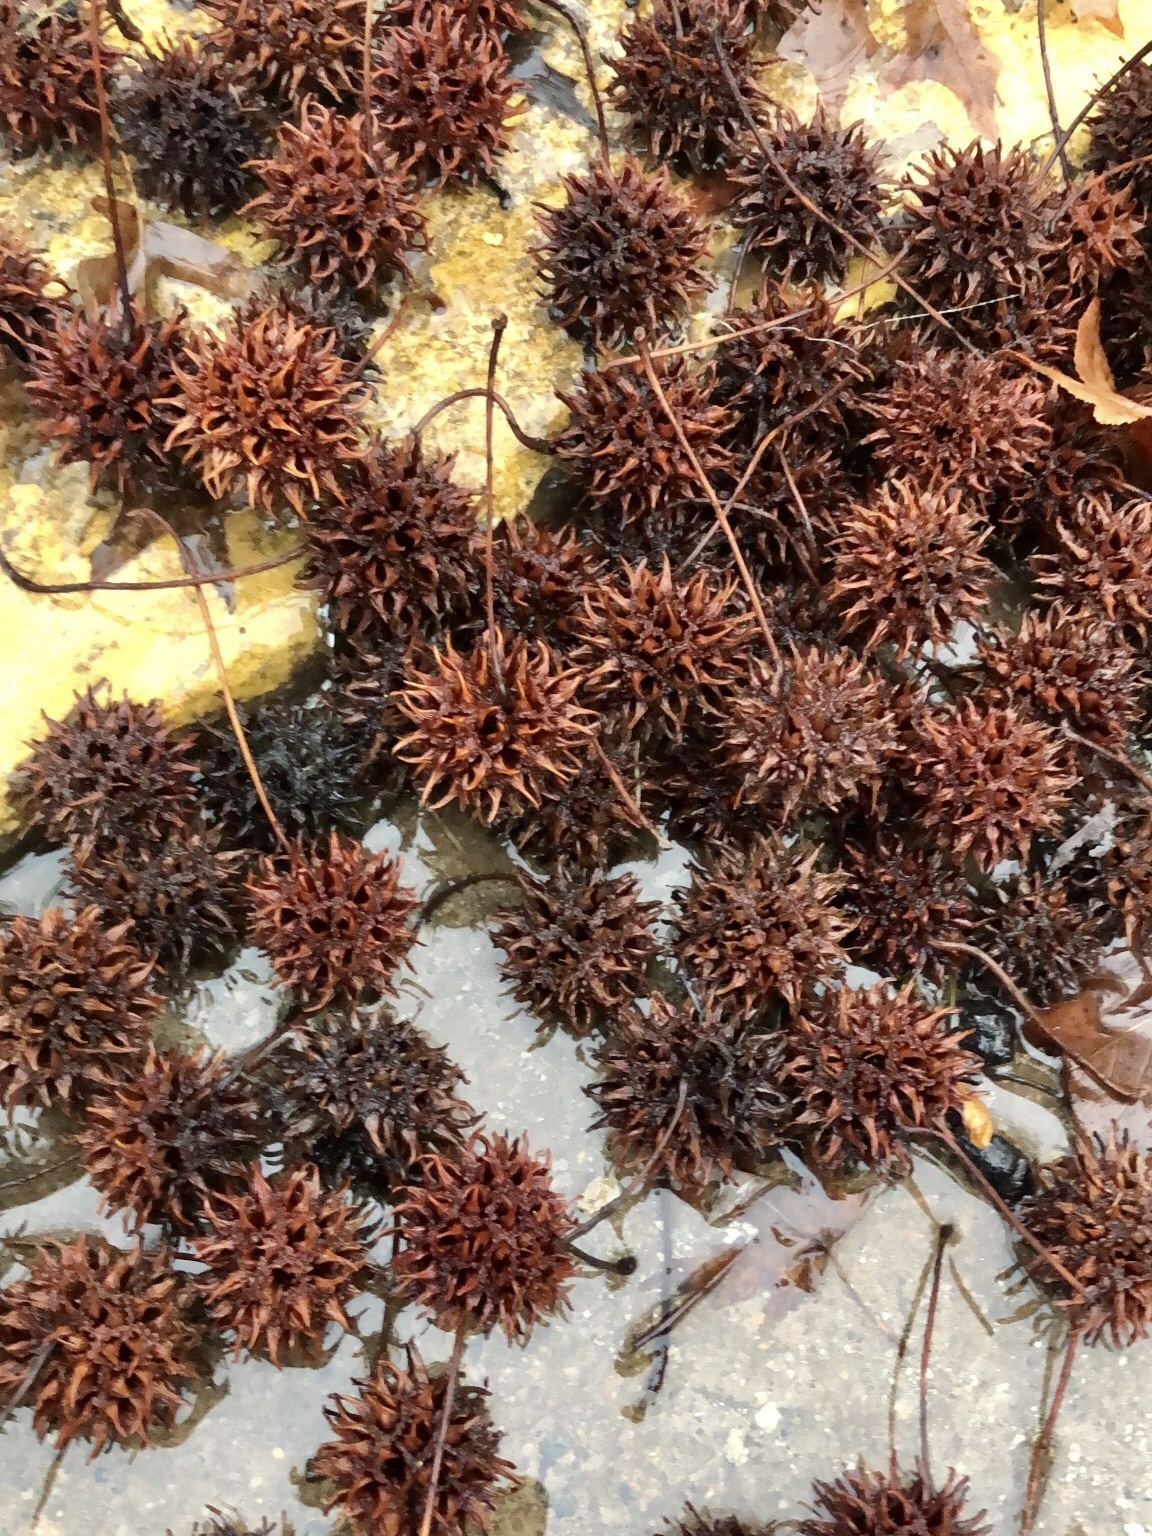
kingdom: Plantae
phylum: Tracheophyta
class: Magnoliopsida
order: Saxifragales
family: Altingiaceae
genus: Liquidambar
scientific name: Liquidambar styraciflua
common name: Sweet gum
